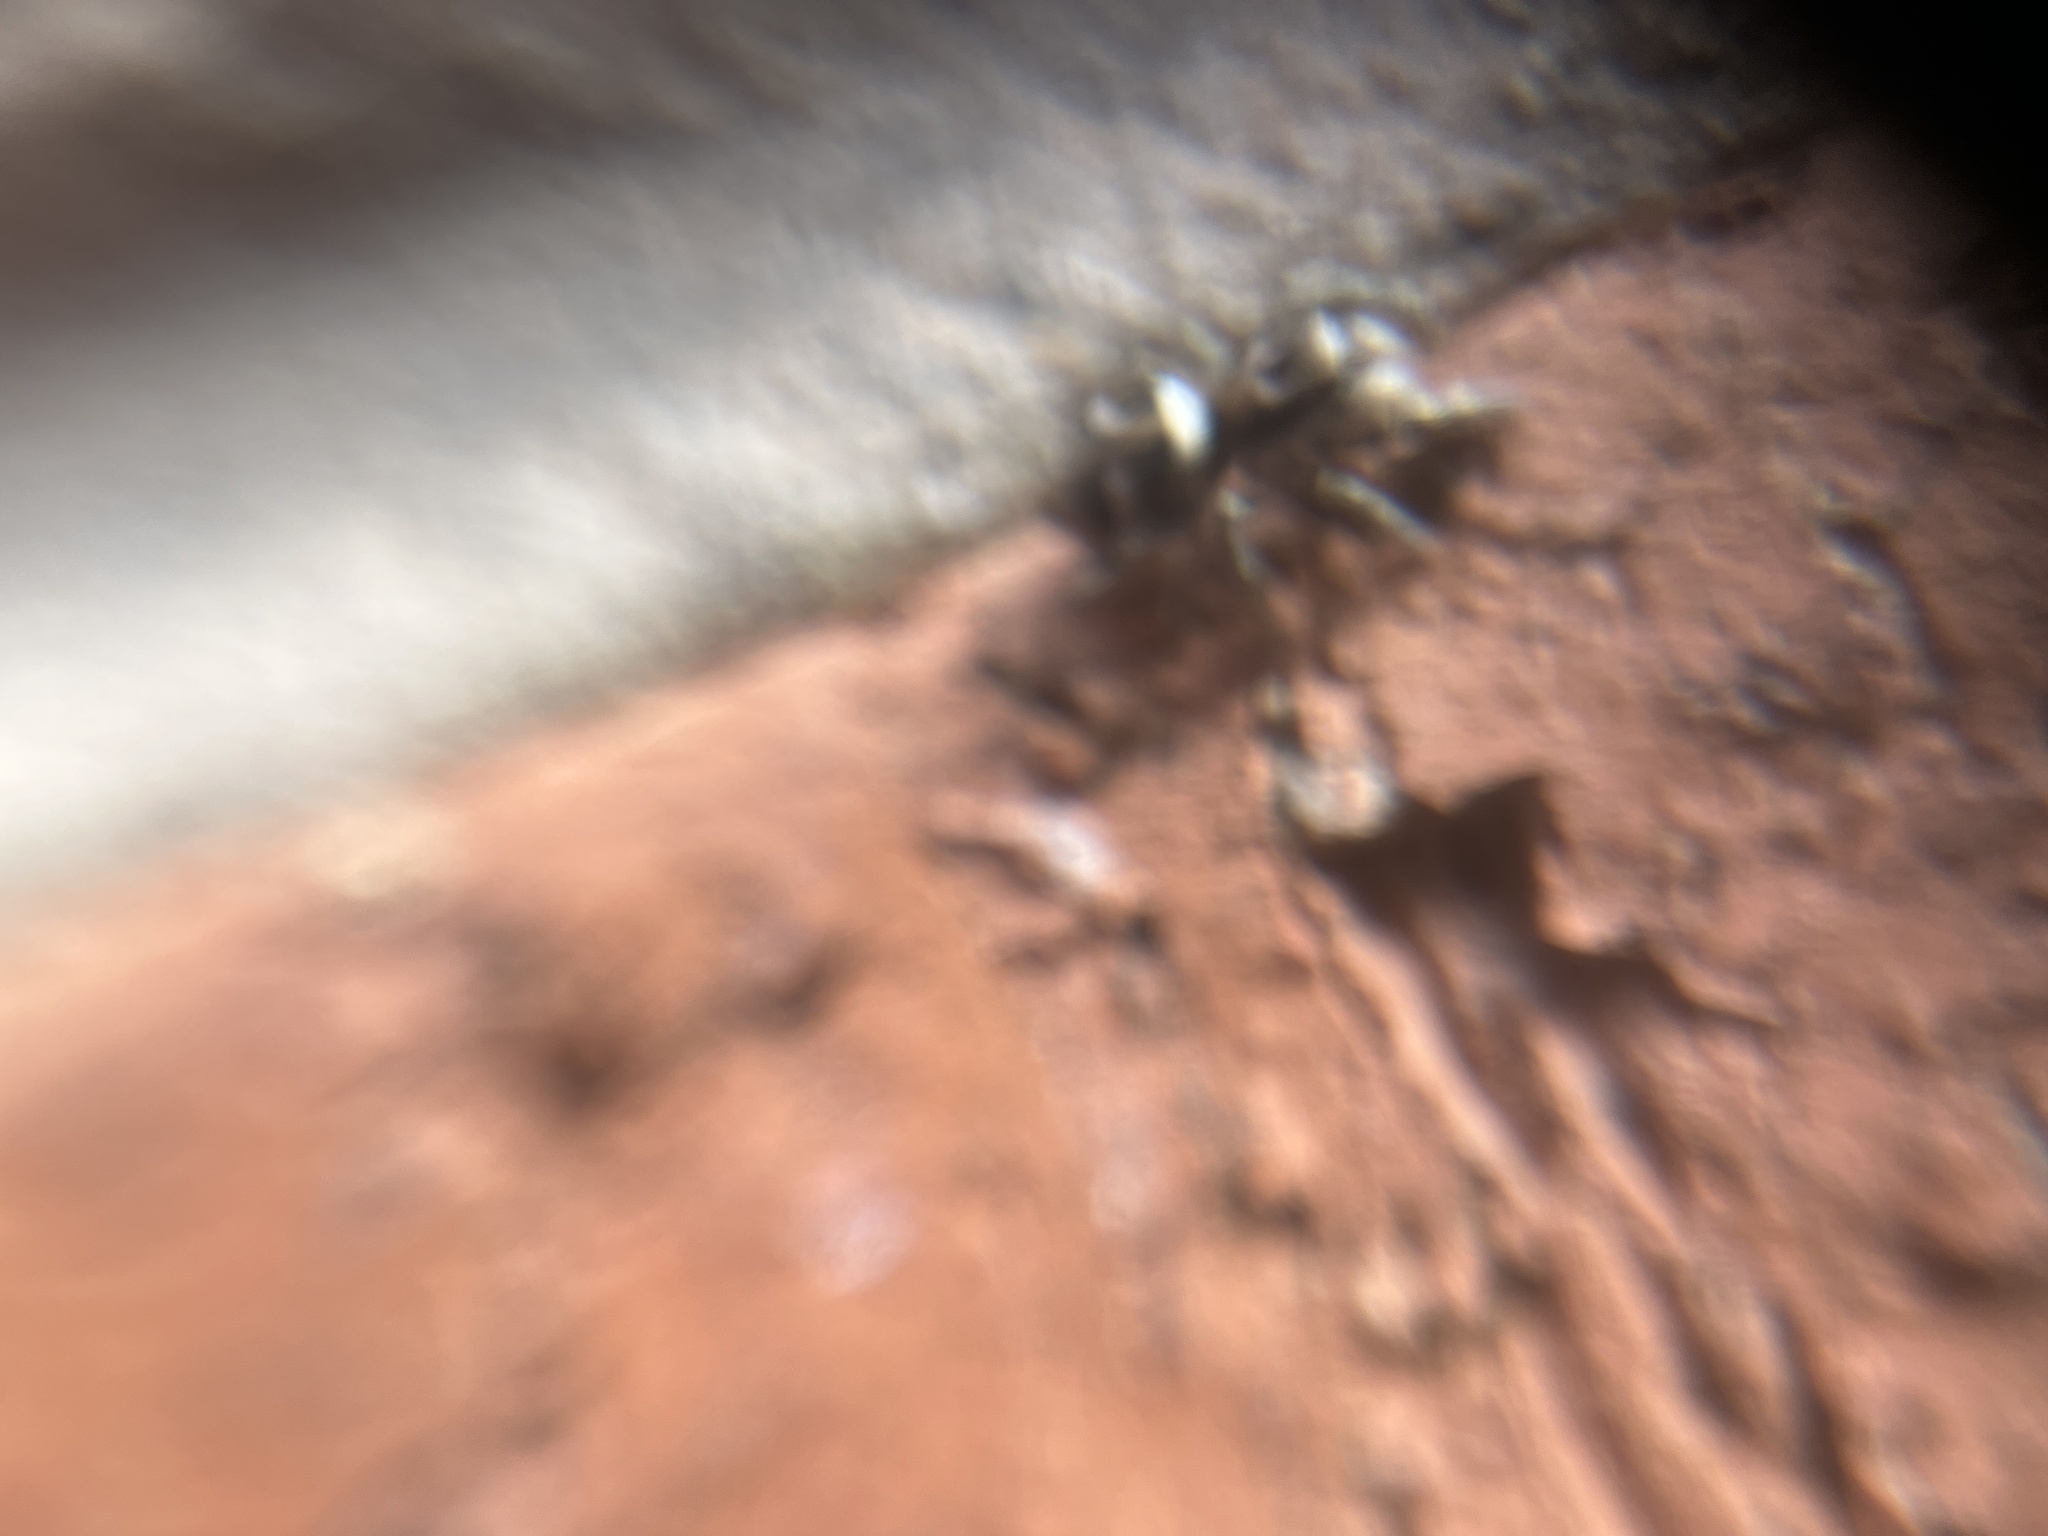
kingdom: Animalia
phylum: Arthropoda
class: Arachnida
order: Araneae
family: Salticidae
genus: Salticus
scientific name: Salticus scenicus
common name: Zebra jumper
